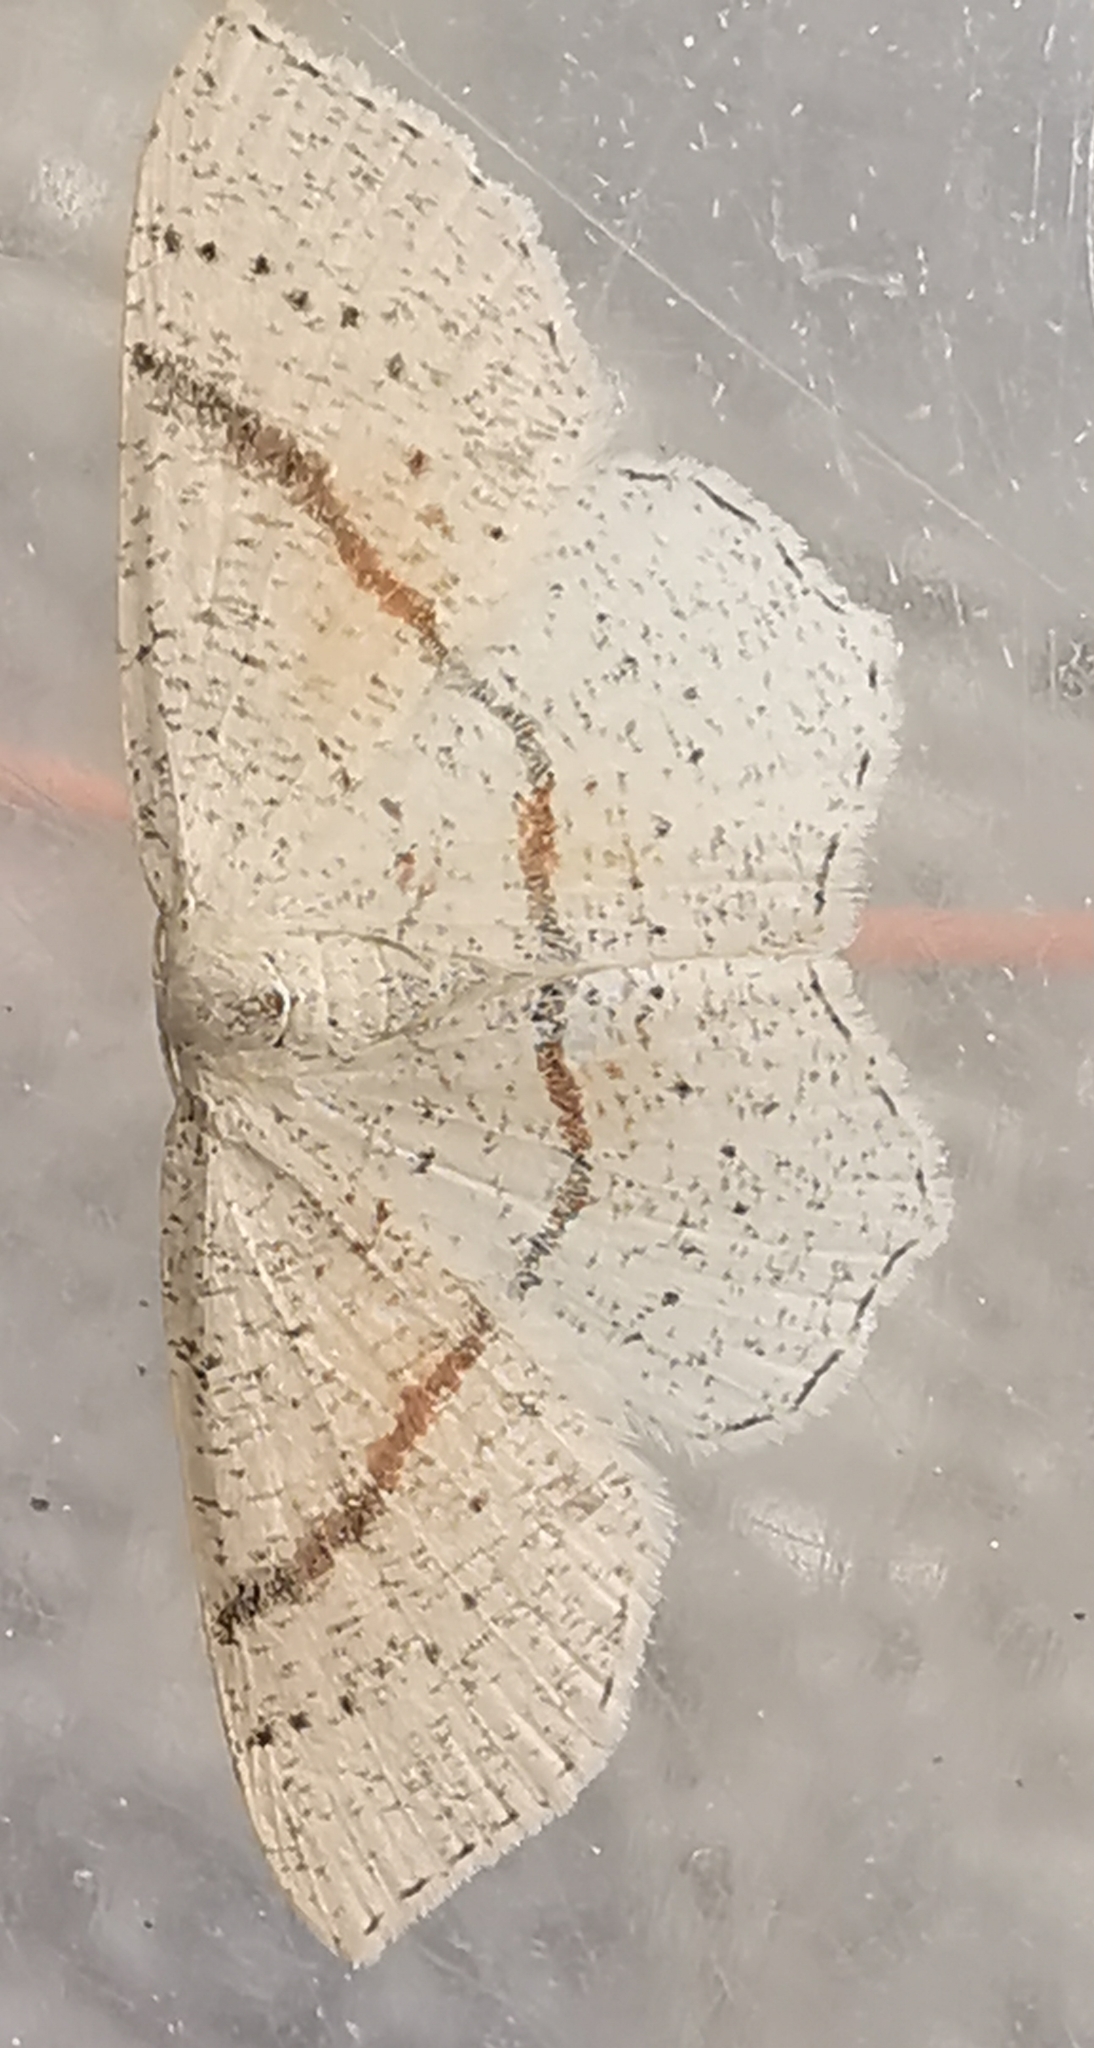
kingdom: Animalia
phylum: Arthropoda
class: Insecta
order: Lepidoptera
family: Geometridae
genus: Cyclophora
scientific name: Cyclophora punctaria
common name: Maiden's blush
